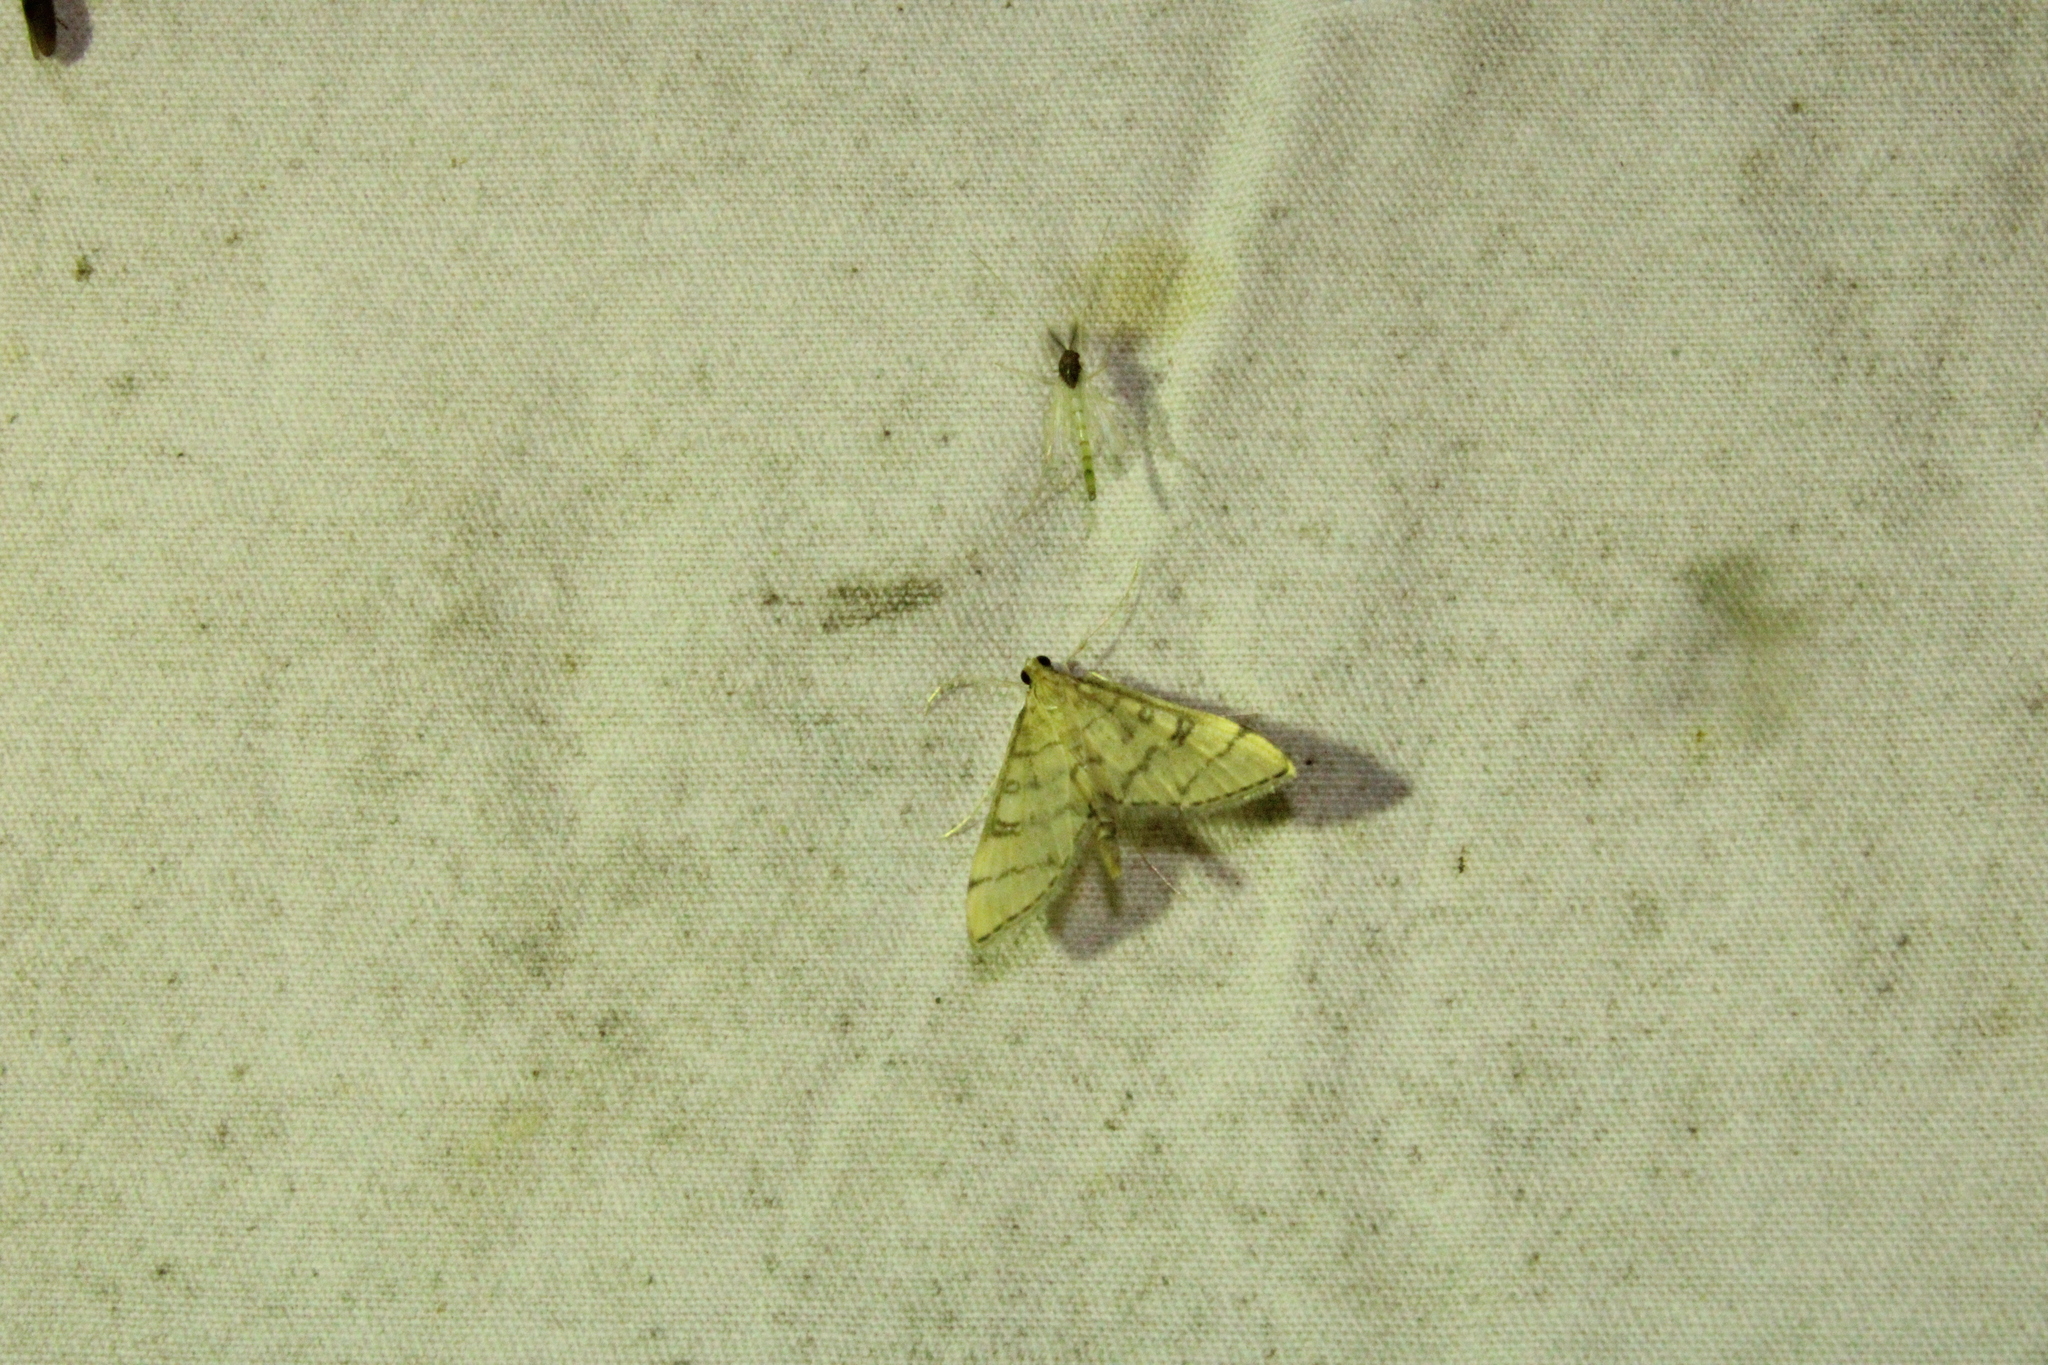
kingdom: Animalia
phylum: Arthropoda
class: Insecta
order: Lepidoptera
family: Crambidae
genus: Lamprosema
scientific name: Lamprosema Blepharomastix ranalis
